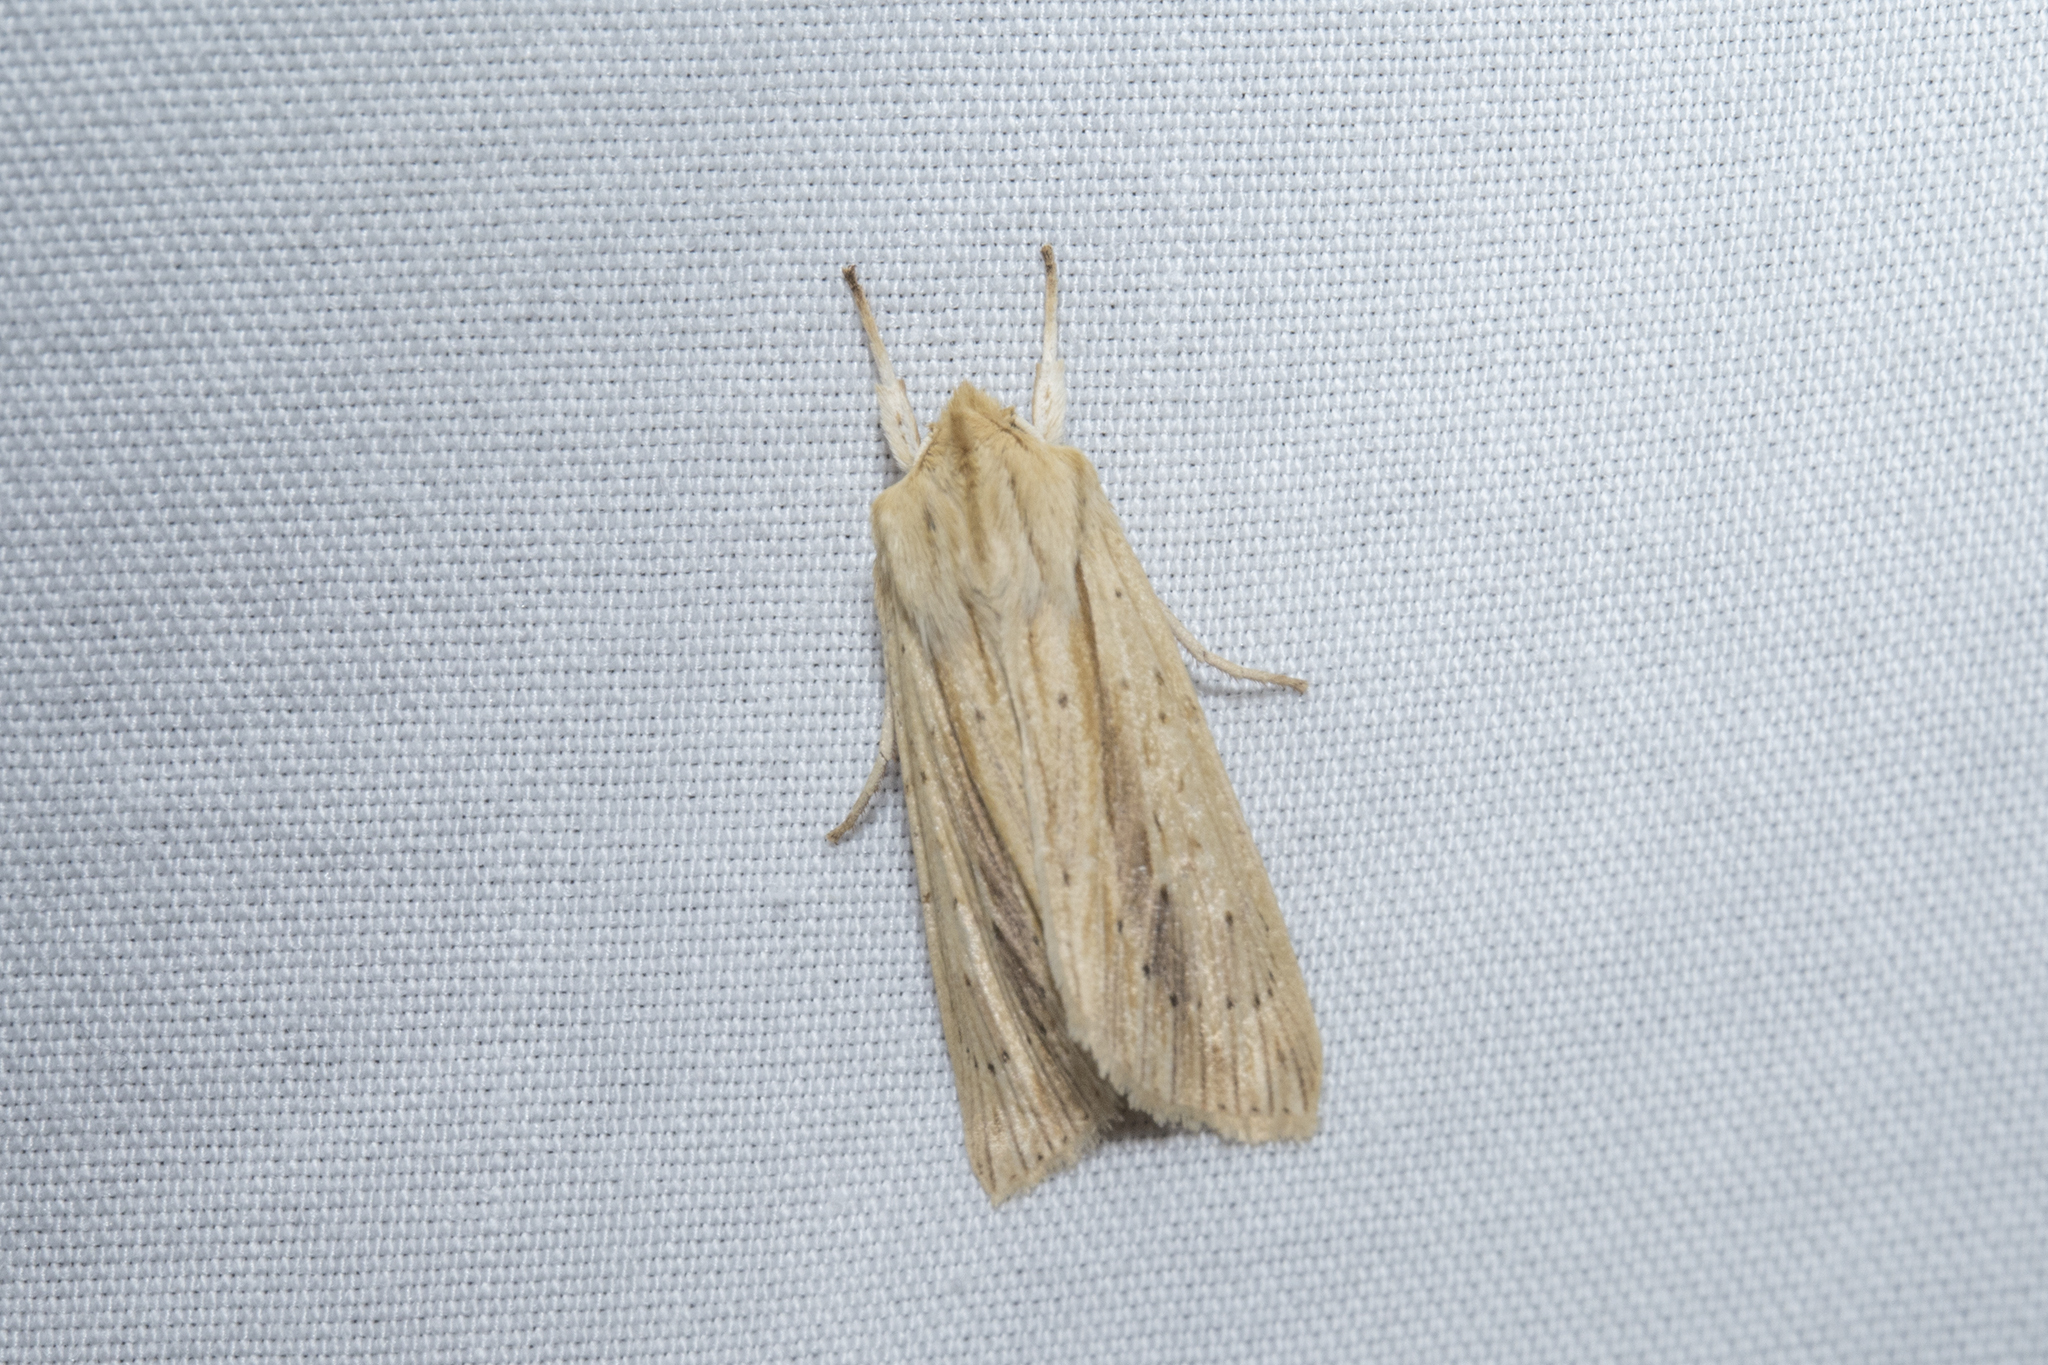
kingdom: Animalia
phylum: Arthropoda
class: Insecta
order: Lepidoptera
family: Noctuidae
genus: Ichneutica
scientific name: Ichneutica semivittata
